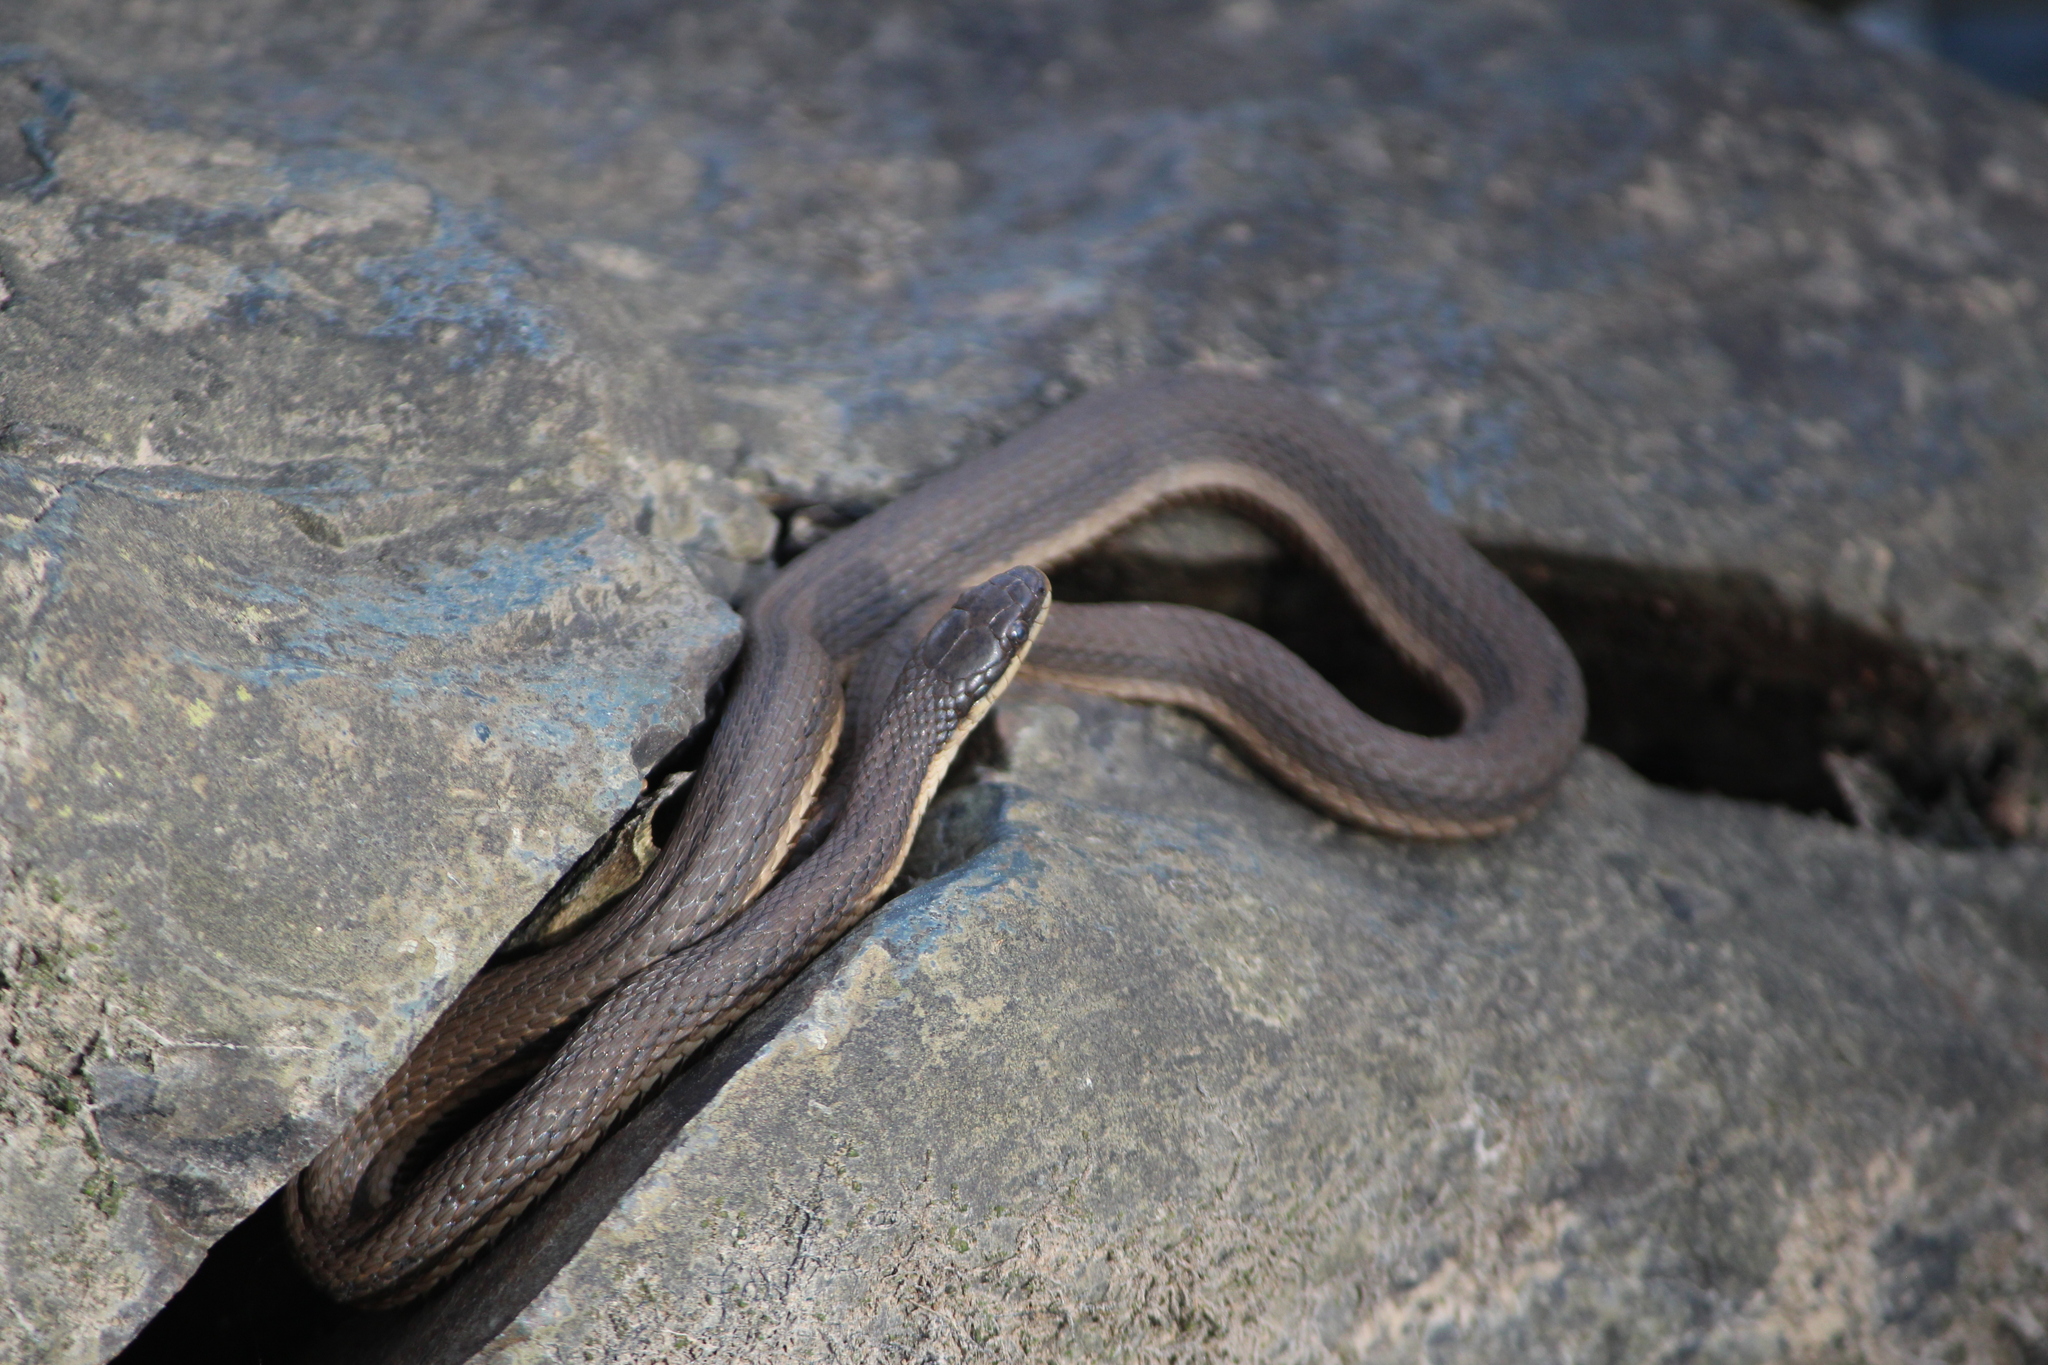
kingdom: Animalia
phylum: Chordata
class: Squamata
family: Colubridae
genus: Regina
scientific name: Regina septemvittata
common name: Queen snake
